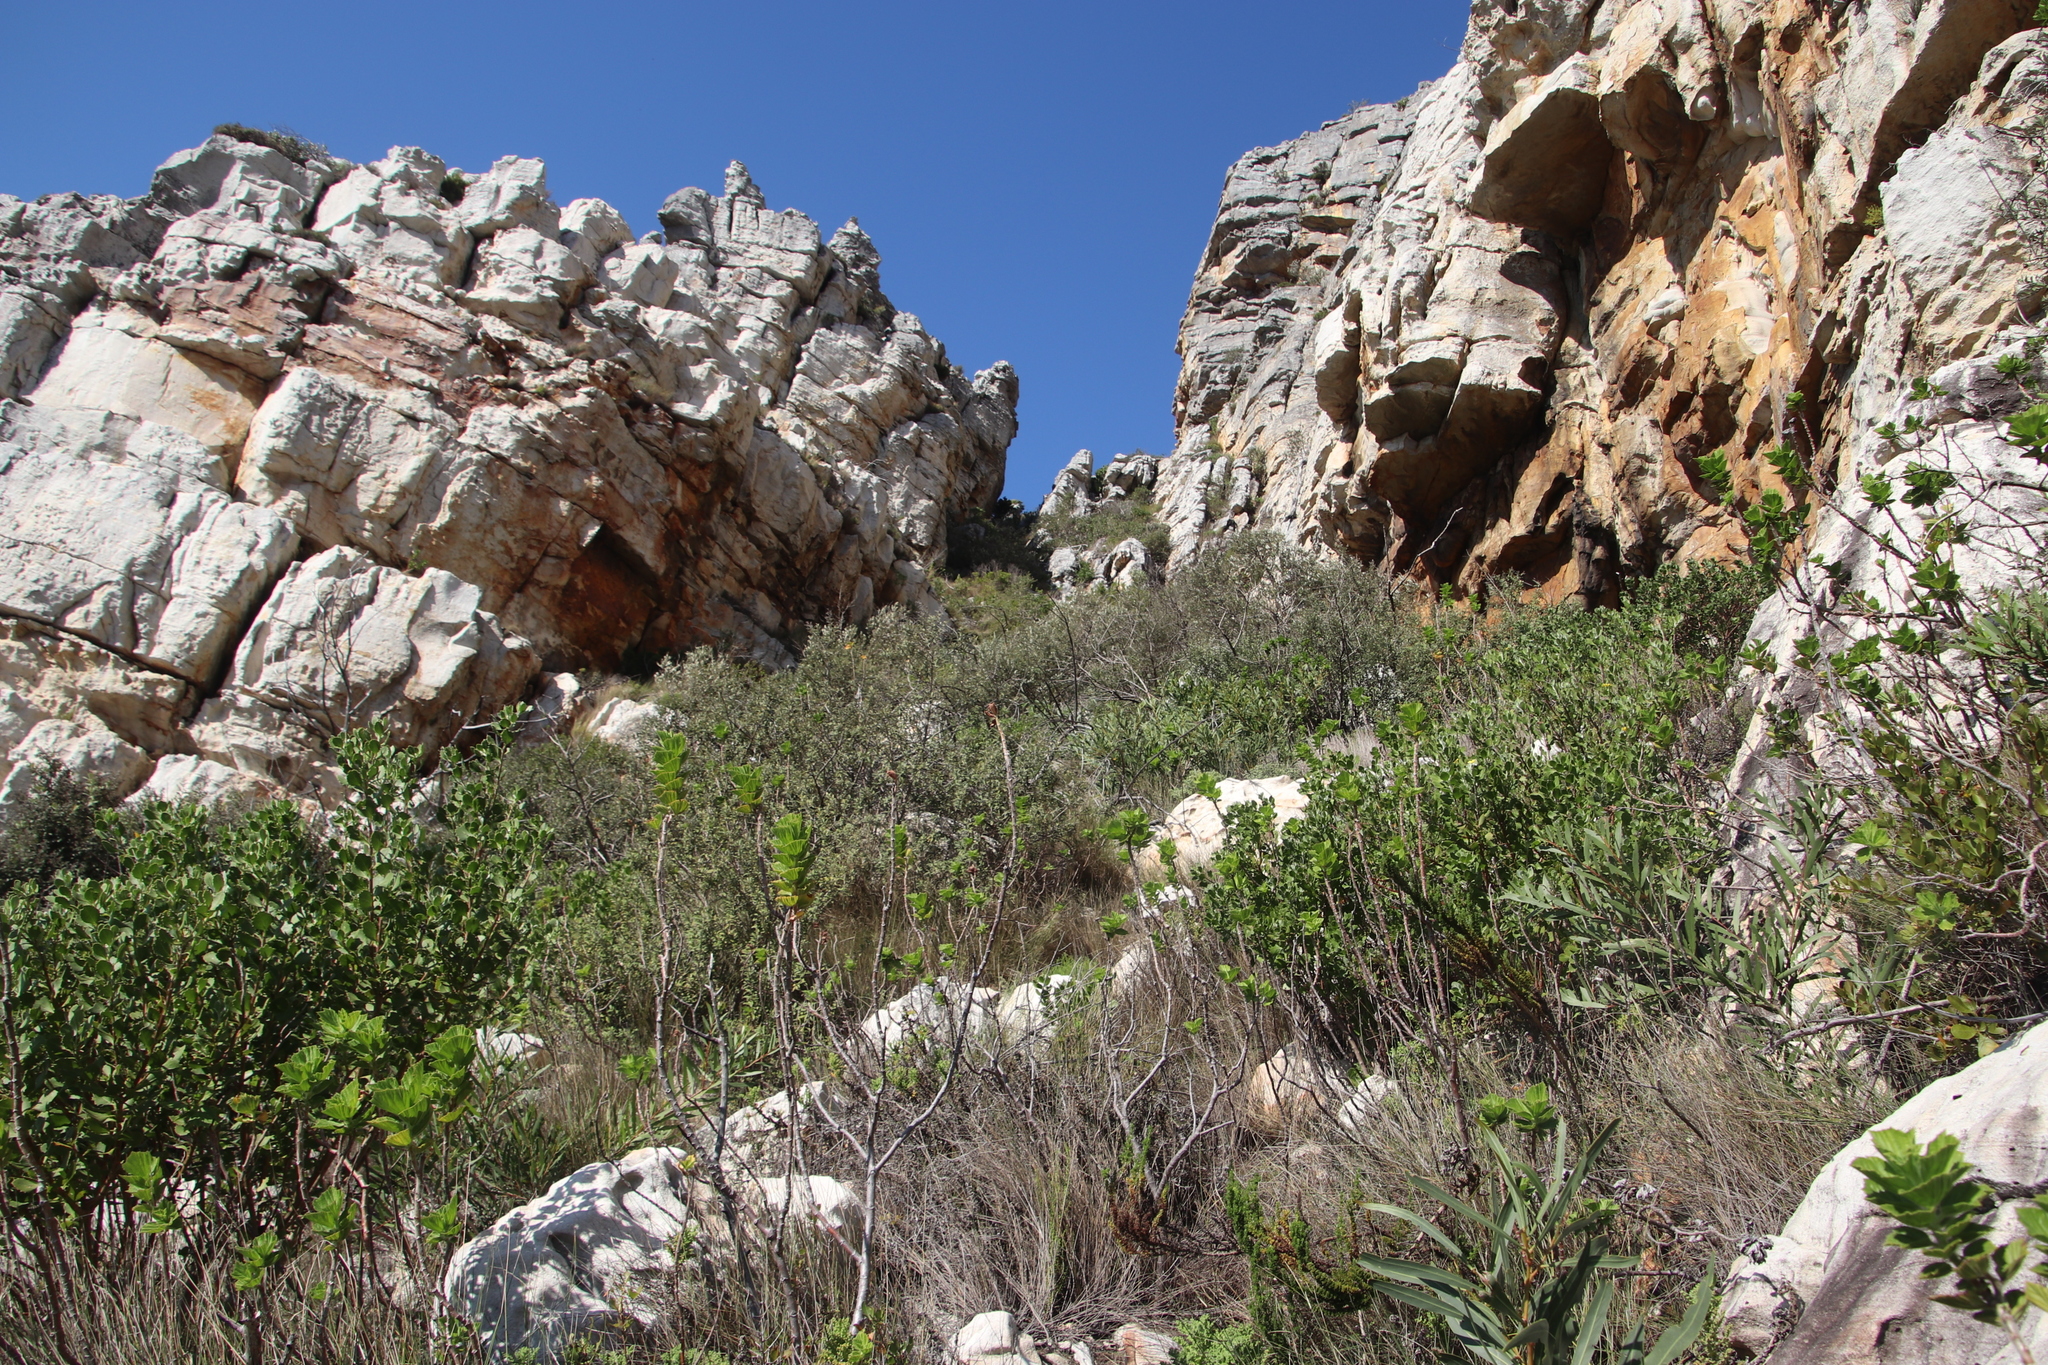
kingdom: Plantae
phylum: Tracheophyta
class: Magnoliopsida
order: Asterales
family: Asteraceae
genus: Tarchonanthus
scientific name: Tarchonanthus littoralis
